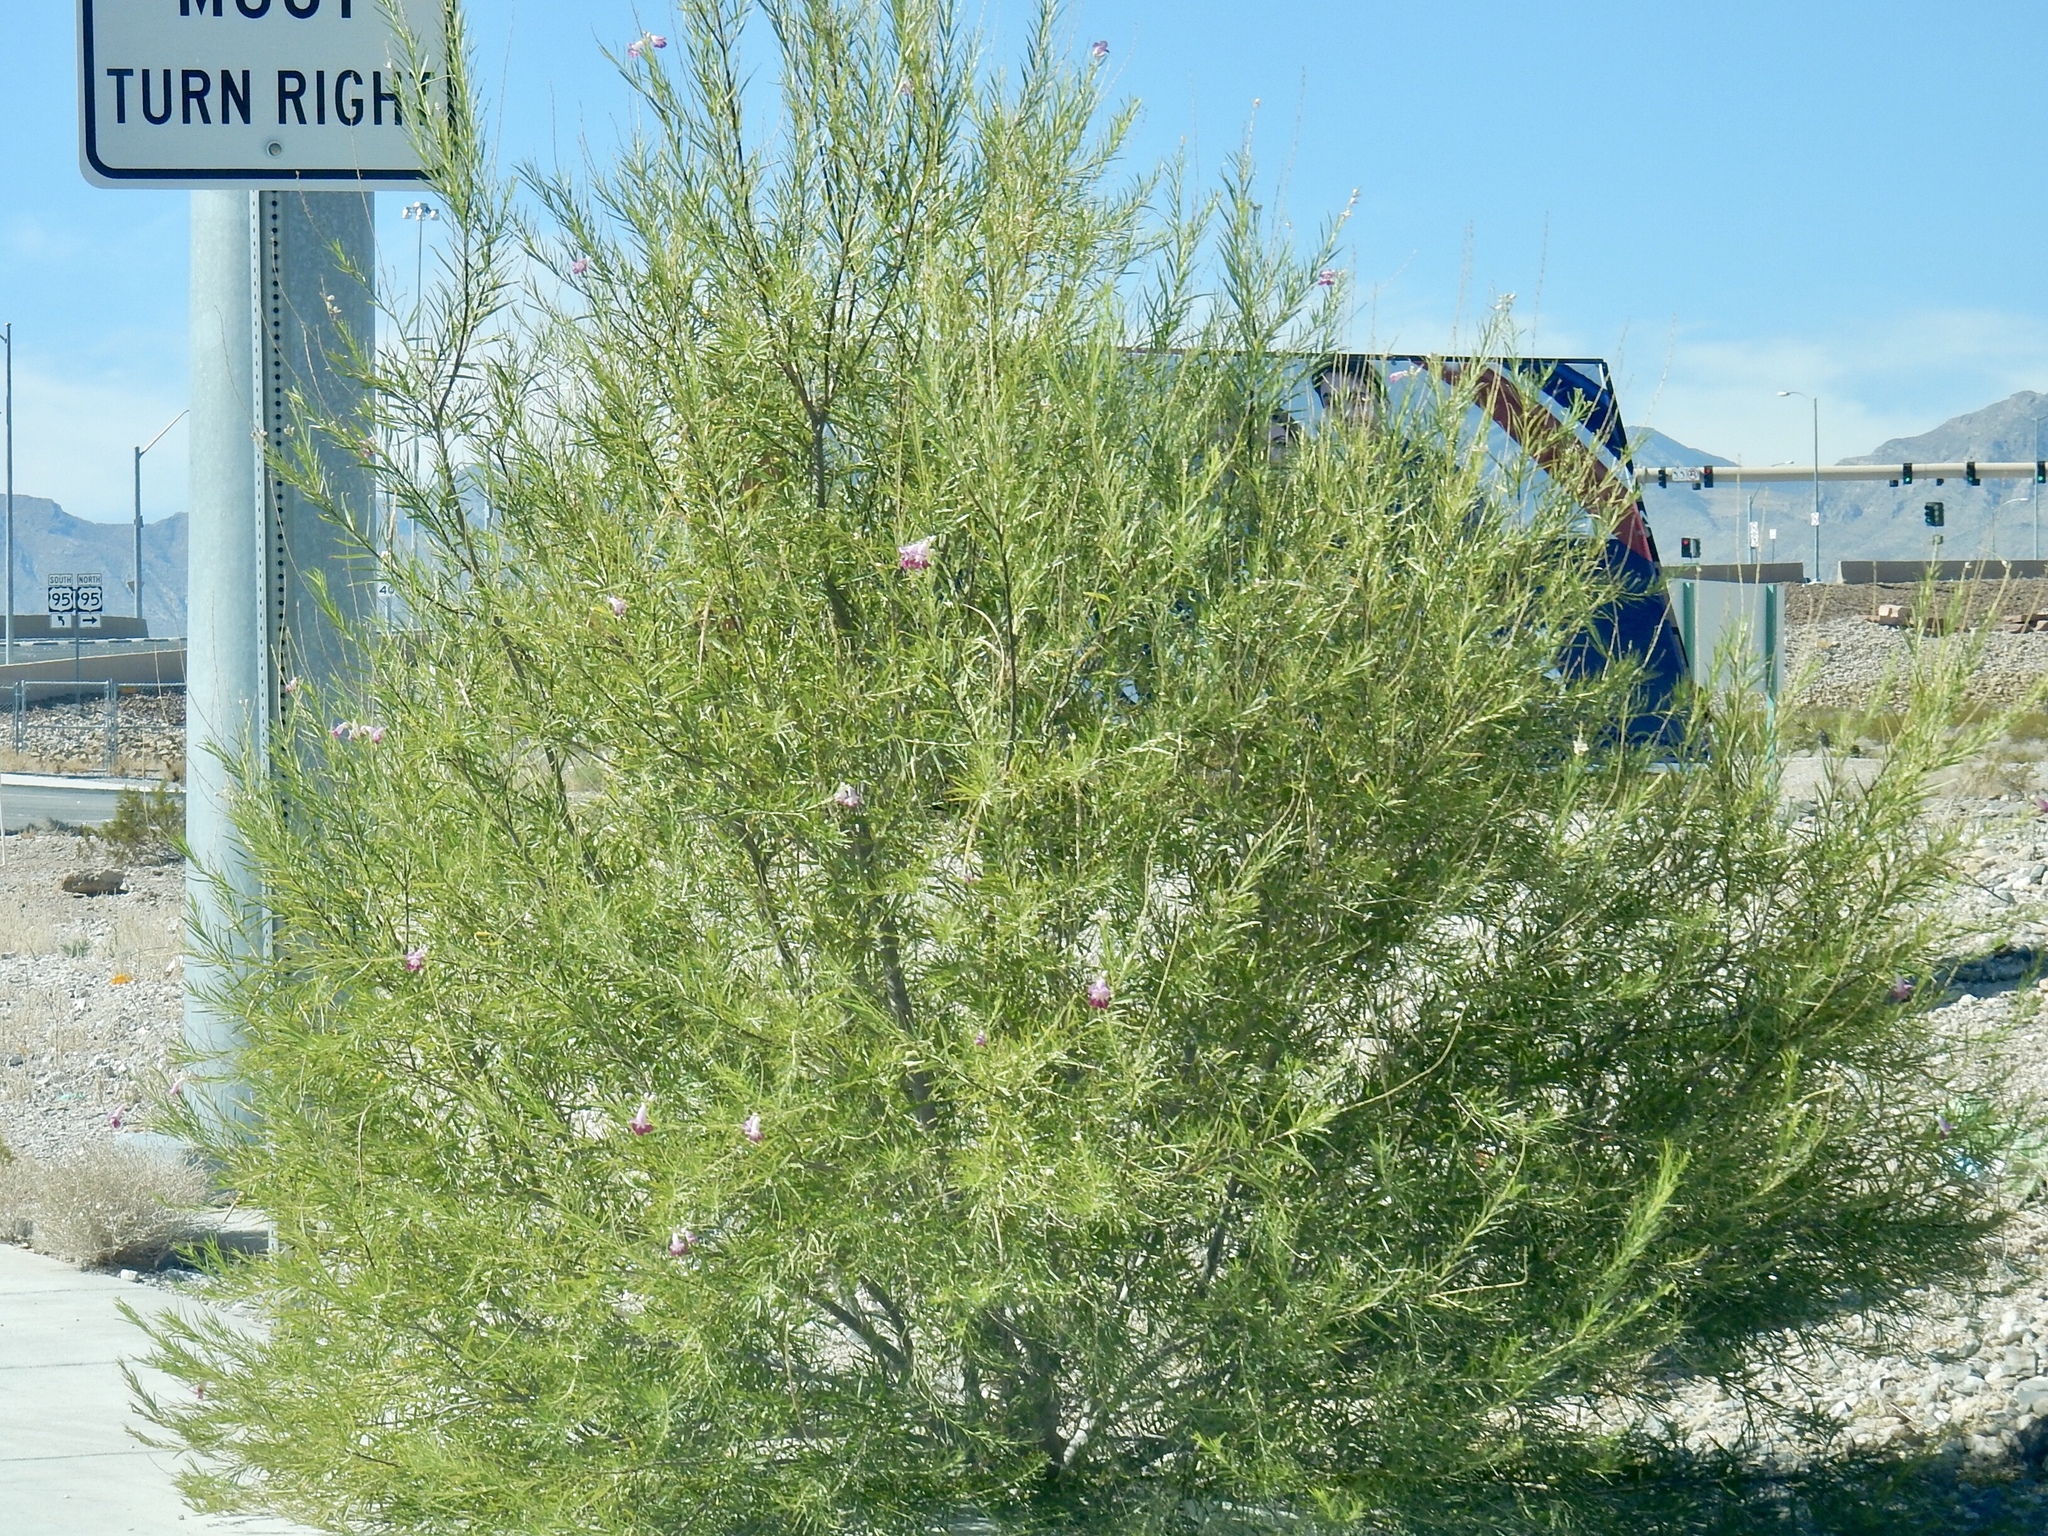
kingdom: Plantae
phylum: Tracheophyta
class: Magnoliopsida
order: Lamiales
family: Bignoniaceae
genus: Chilopsis
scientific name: Chilopsis linearis
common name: Desert-willow
